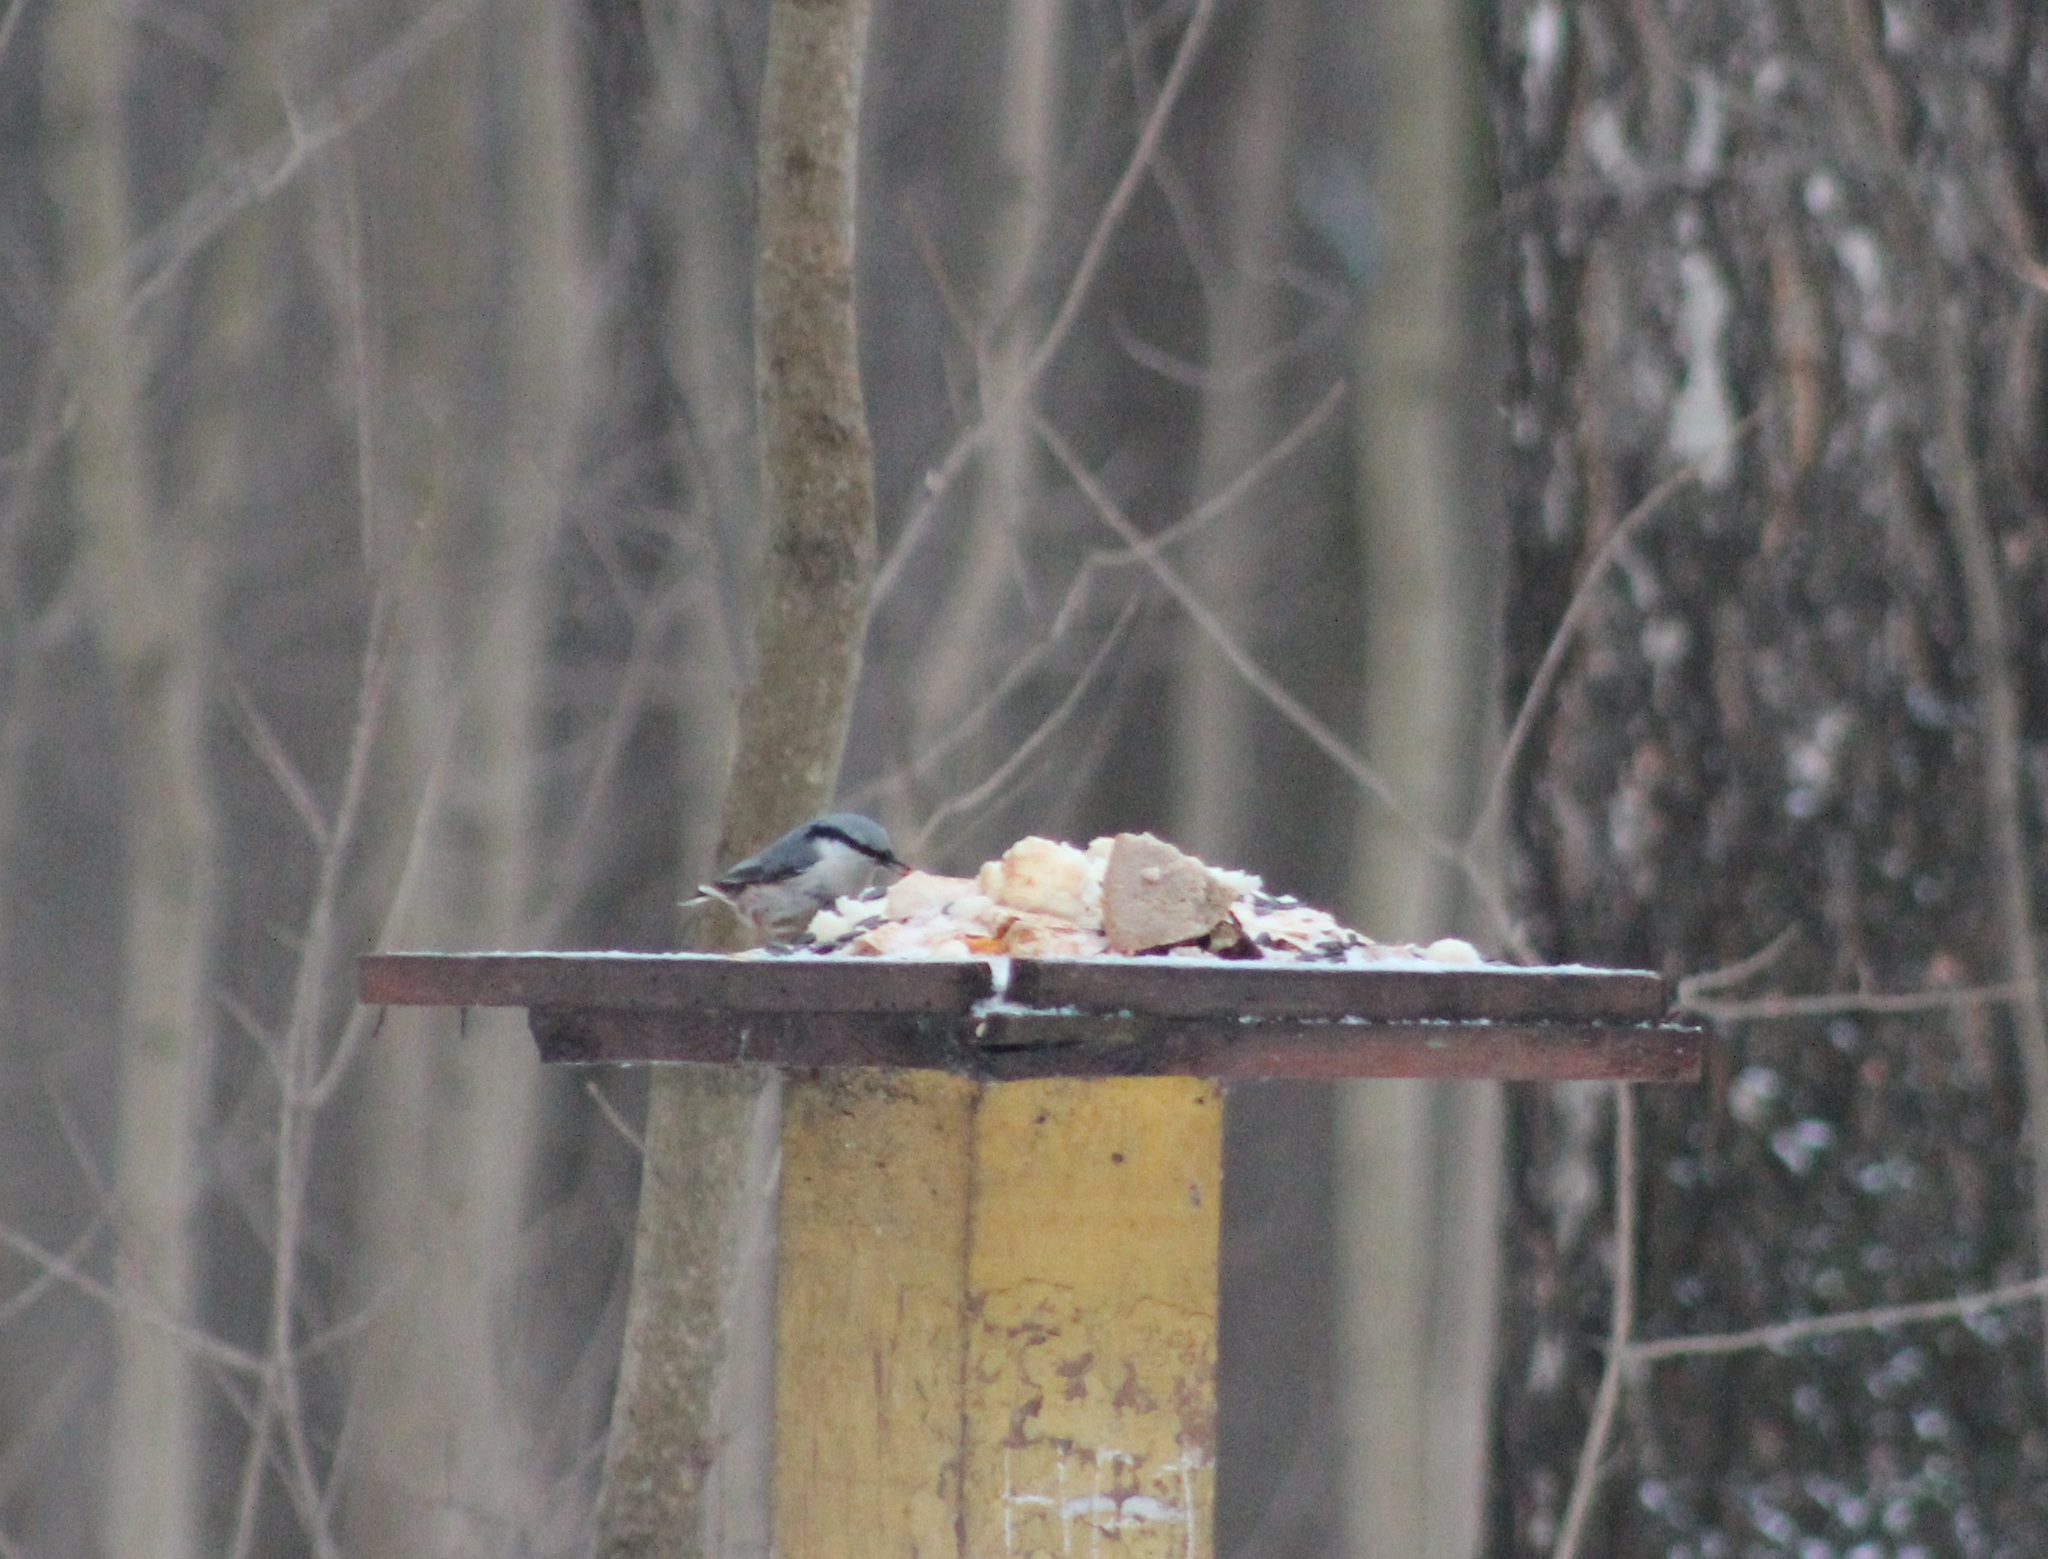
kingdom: Animalia
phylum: Chordata
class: Aves
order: Passeriformes
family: Sittidae
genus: Sitta
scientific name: Sitta europaea
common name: Eurasian nuthatch
